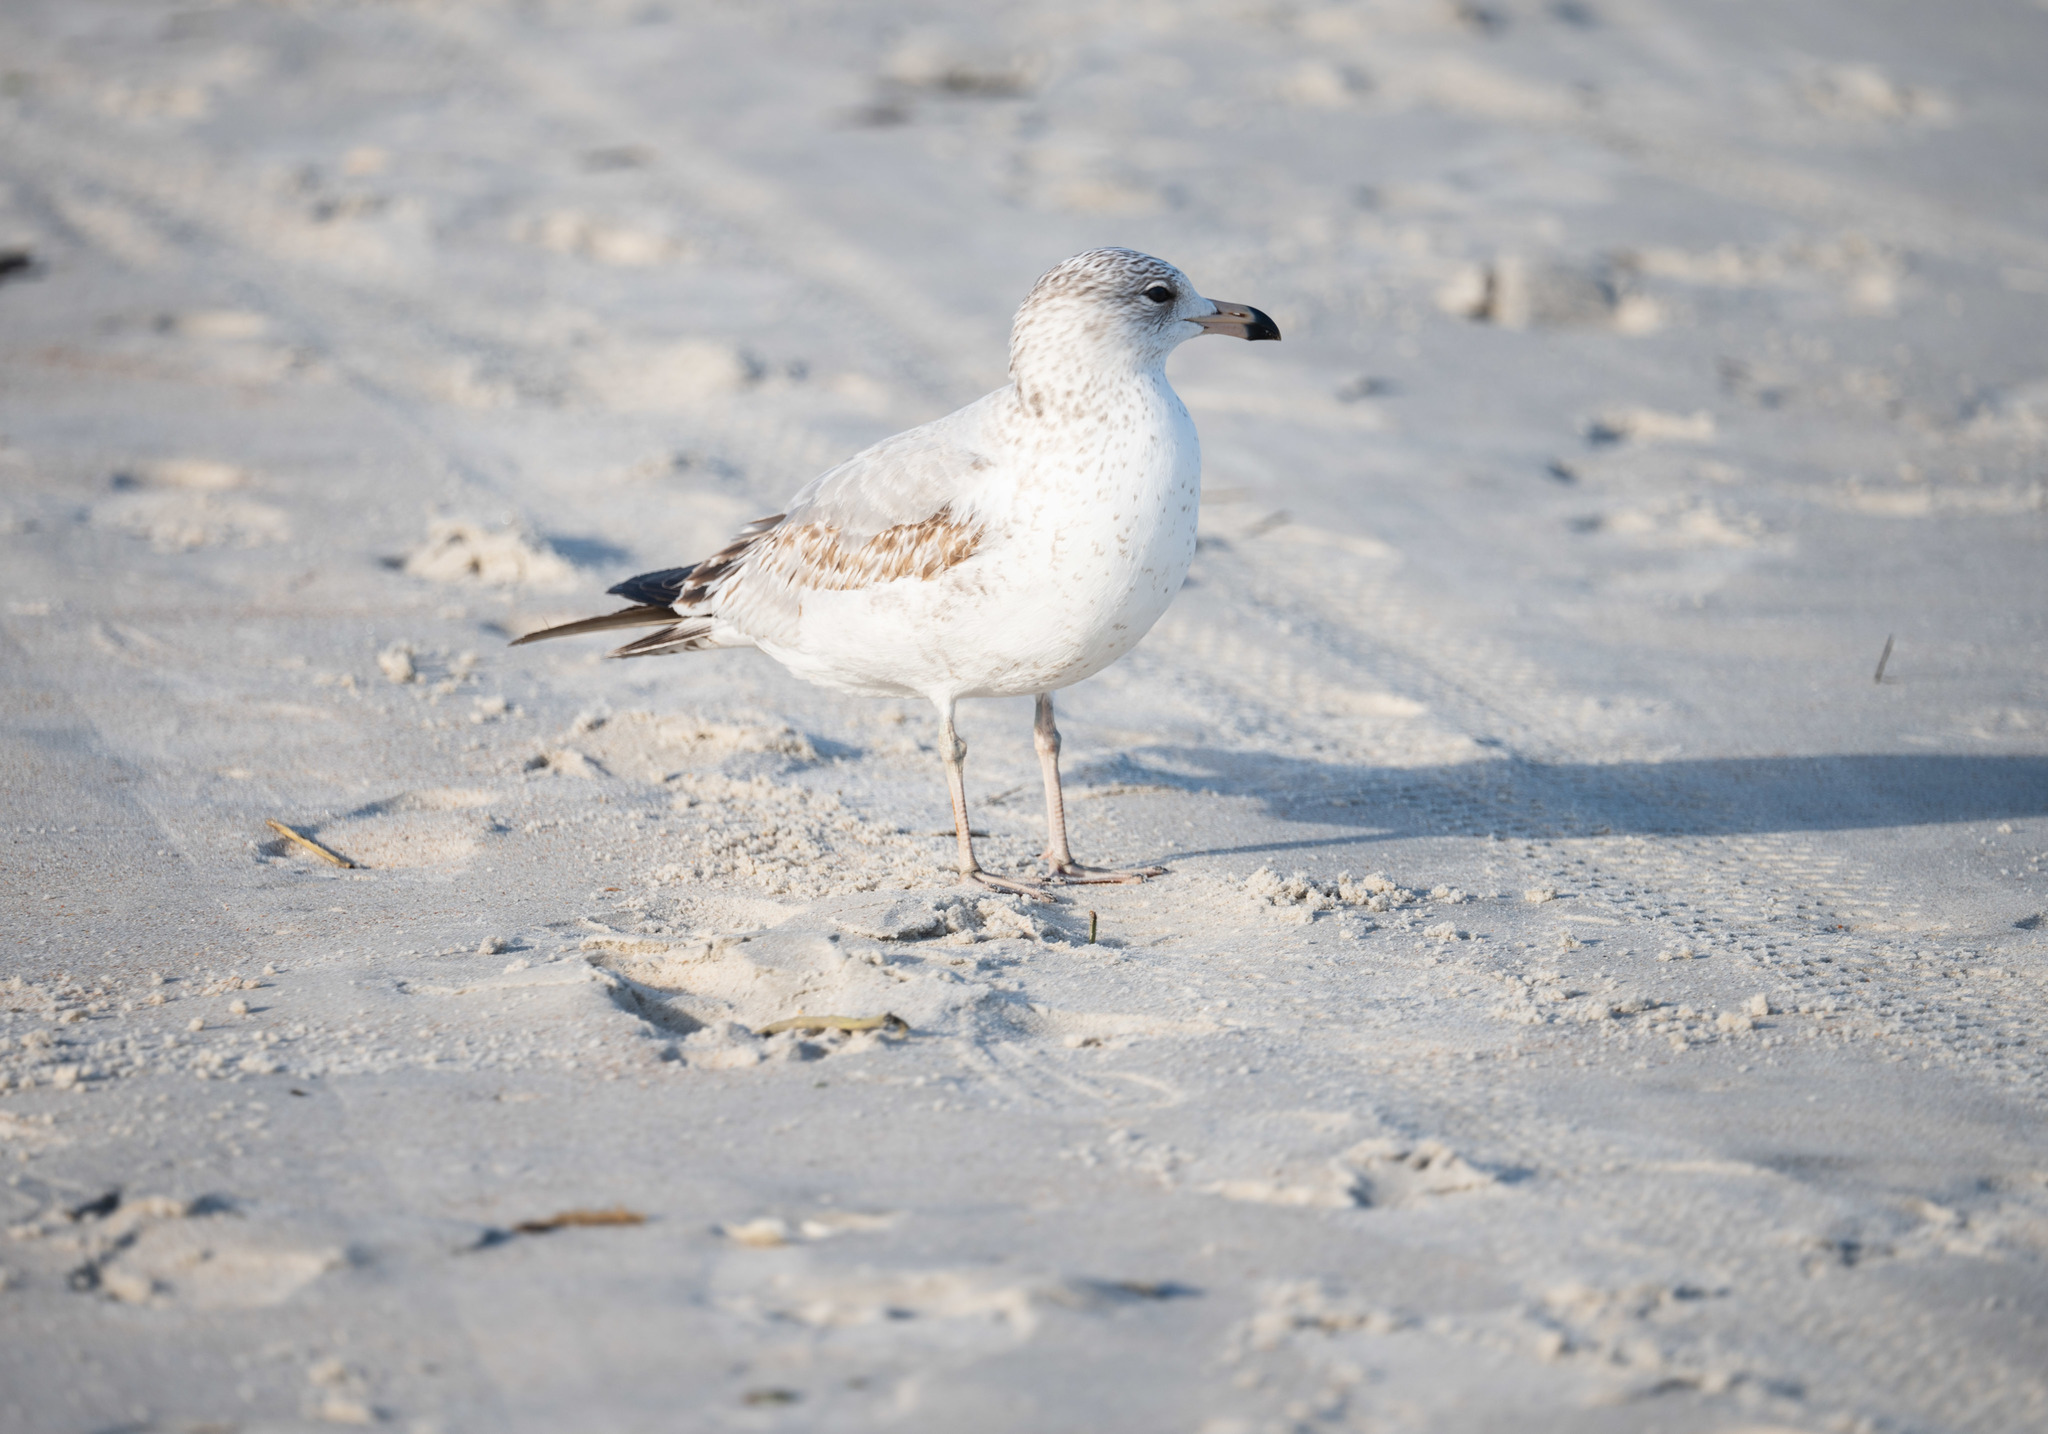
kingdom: Animalia
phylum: Chordata
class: Aves
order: Charadriiformes
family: Laridae
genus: Larus
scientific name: Larus delawarensis
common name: Ring-billed gull
